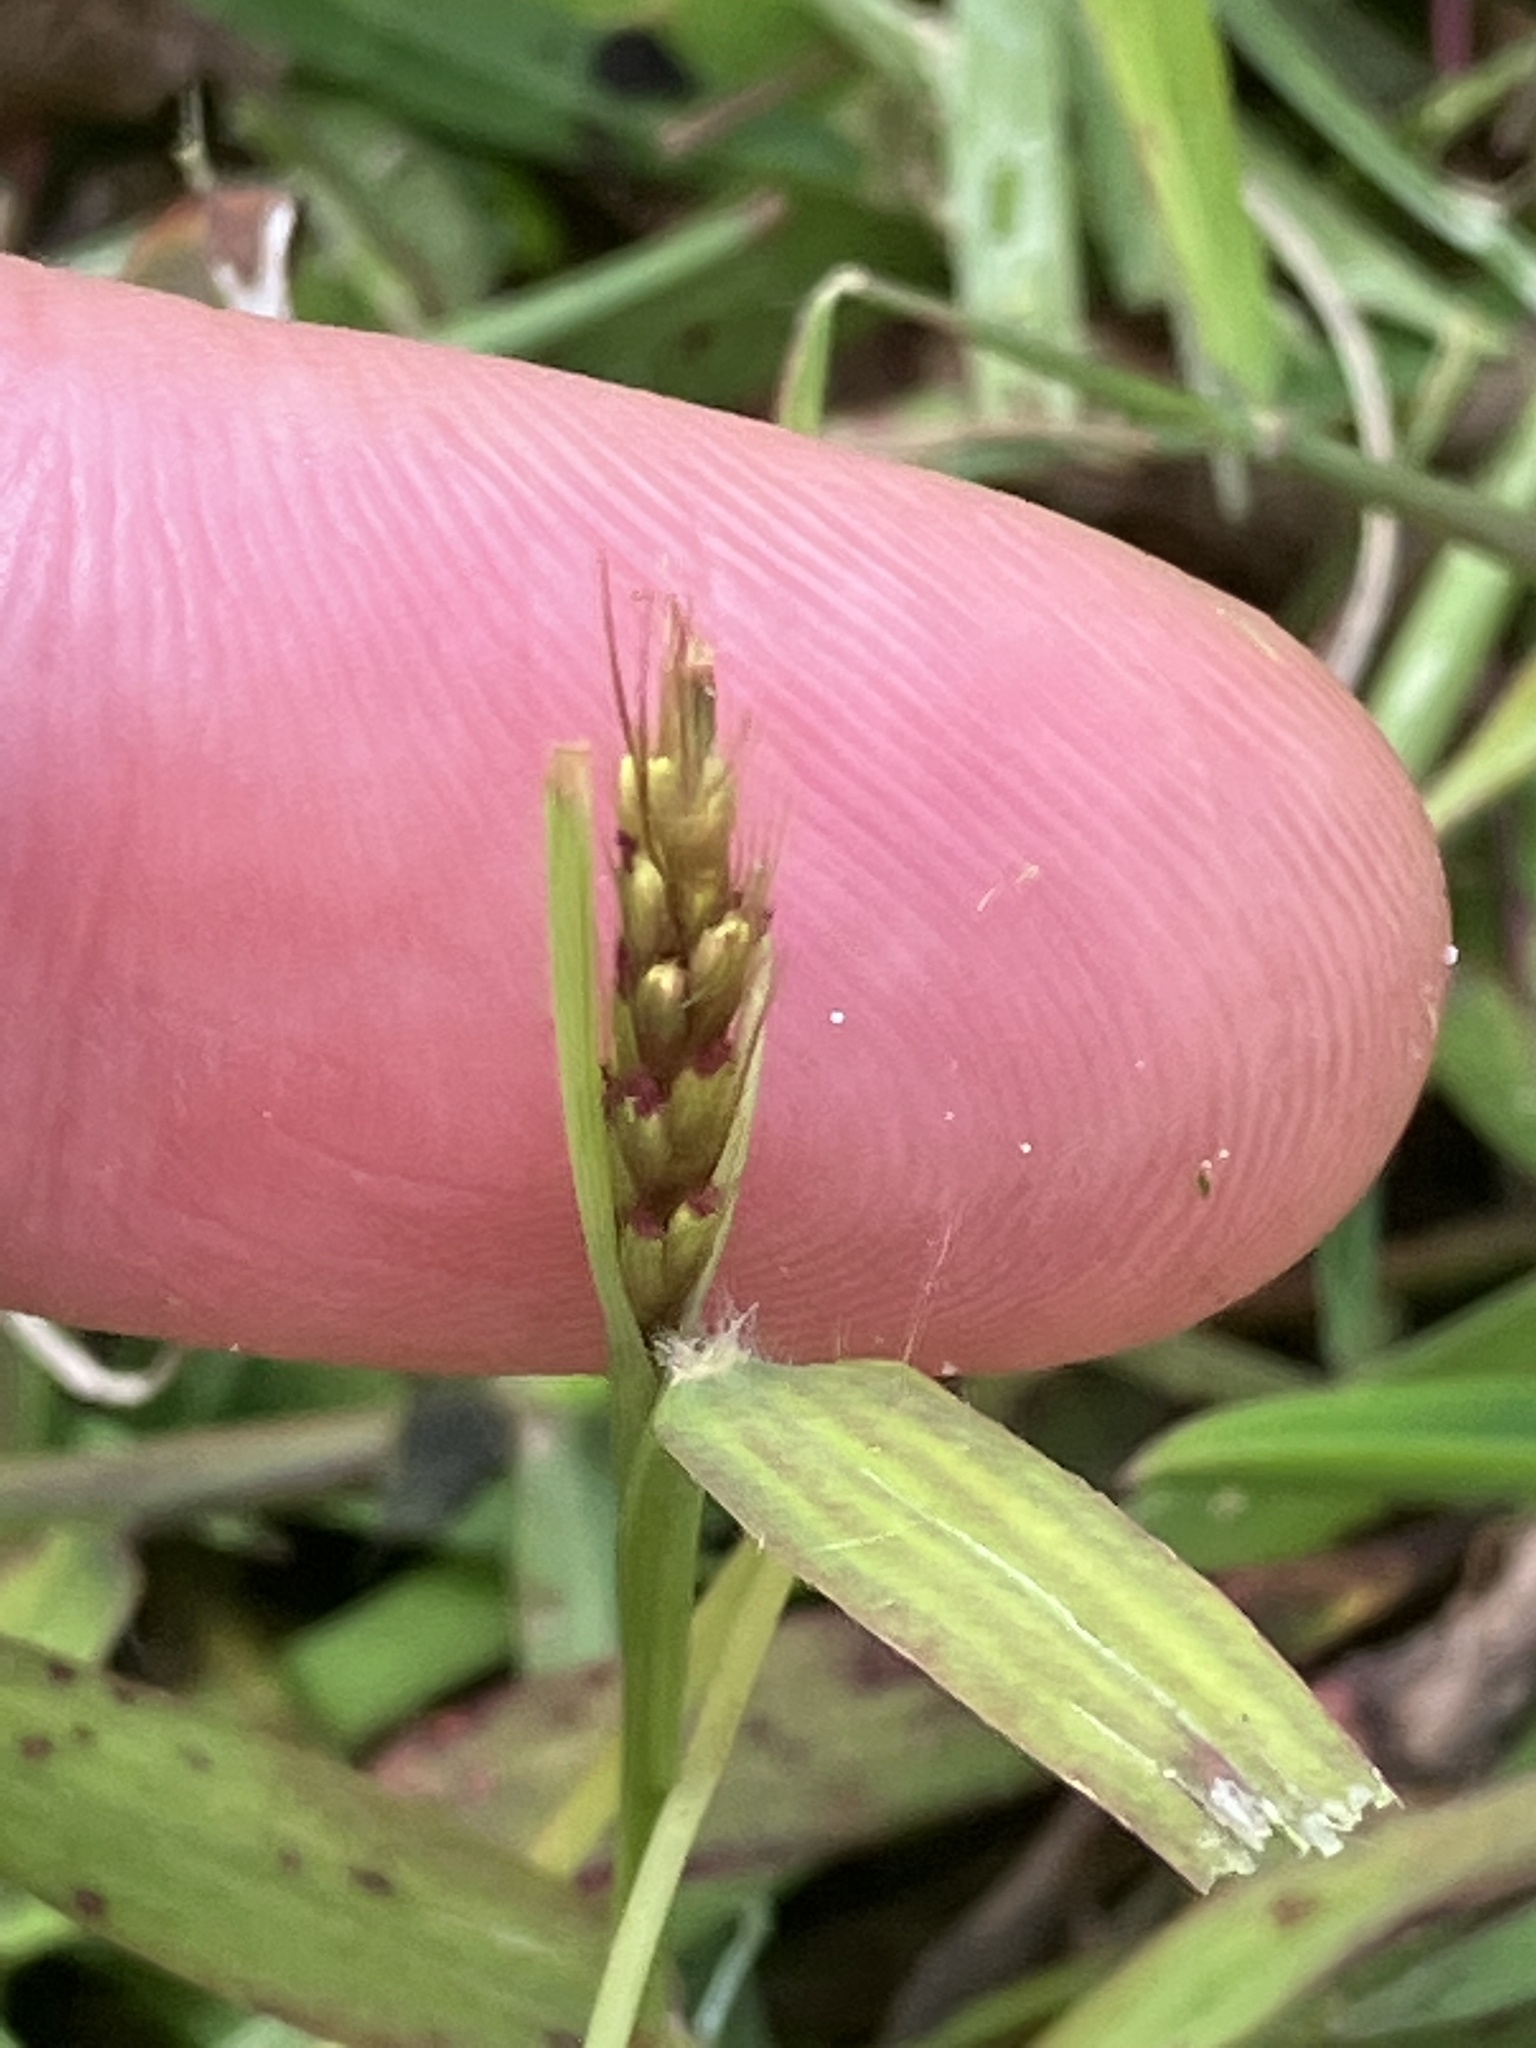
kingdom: Plantae
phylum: Tracheophyta
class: Liliopsida
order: Poales
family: Poaceae
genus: Polytrias
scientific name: Polytrias indica
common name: Indian murainagrass
